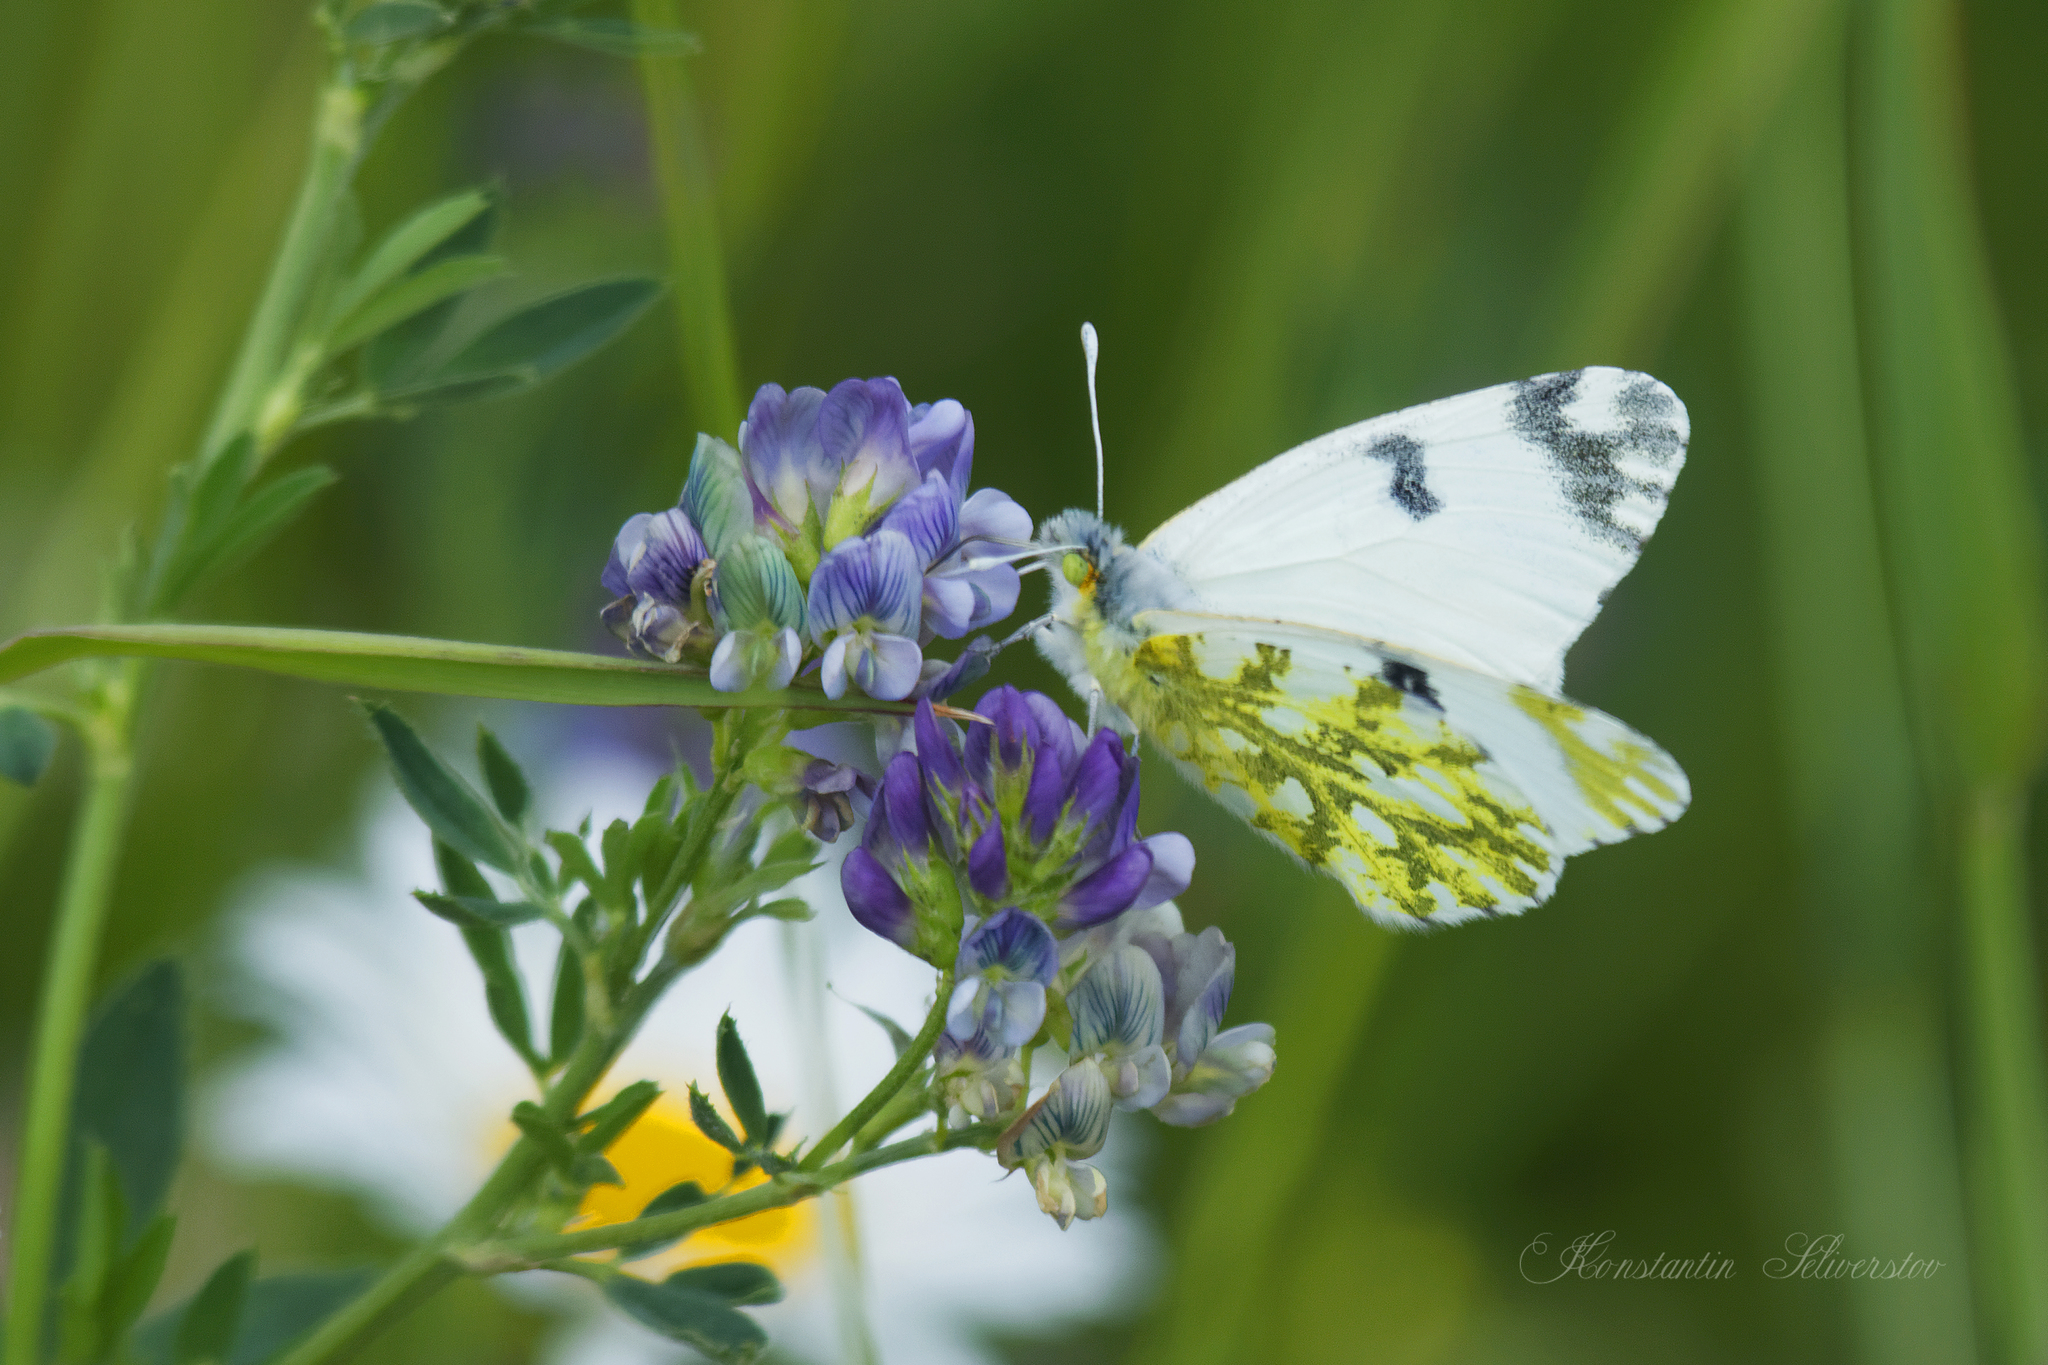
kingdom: Animalia
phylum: Arthropoda
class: Insecta
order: Lepidoptera
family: Pieridae
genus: Euchloe
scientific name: Euchloe ausonia
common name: Eastern dappled white
